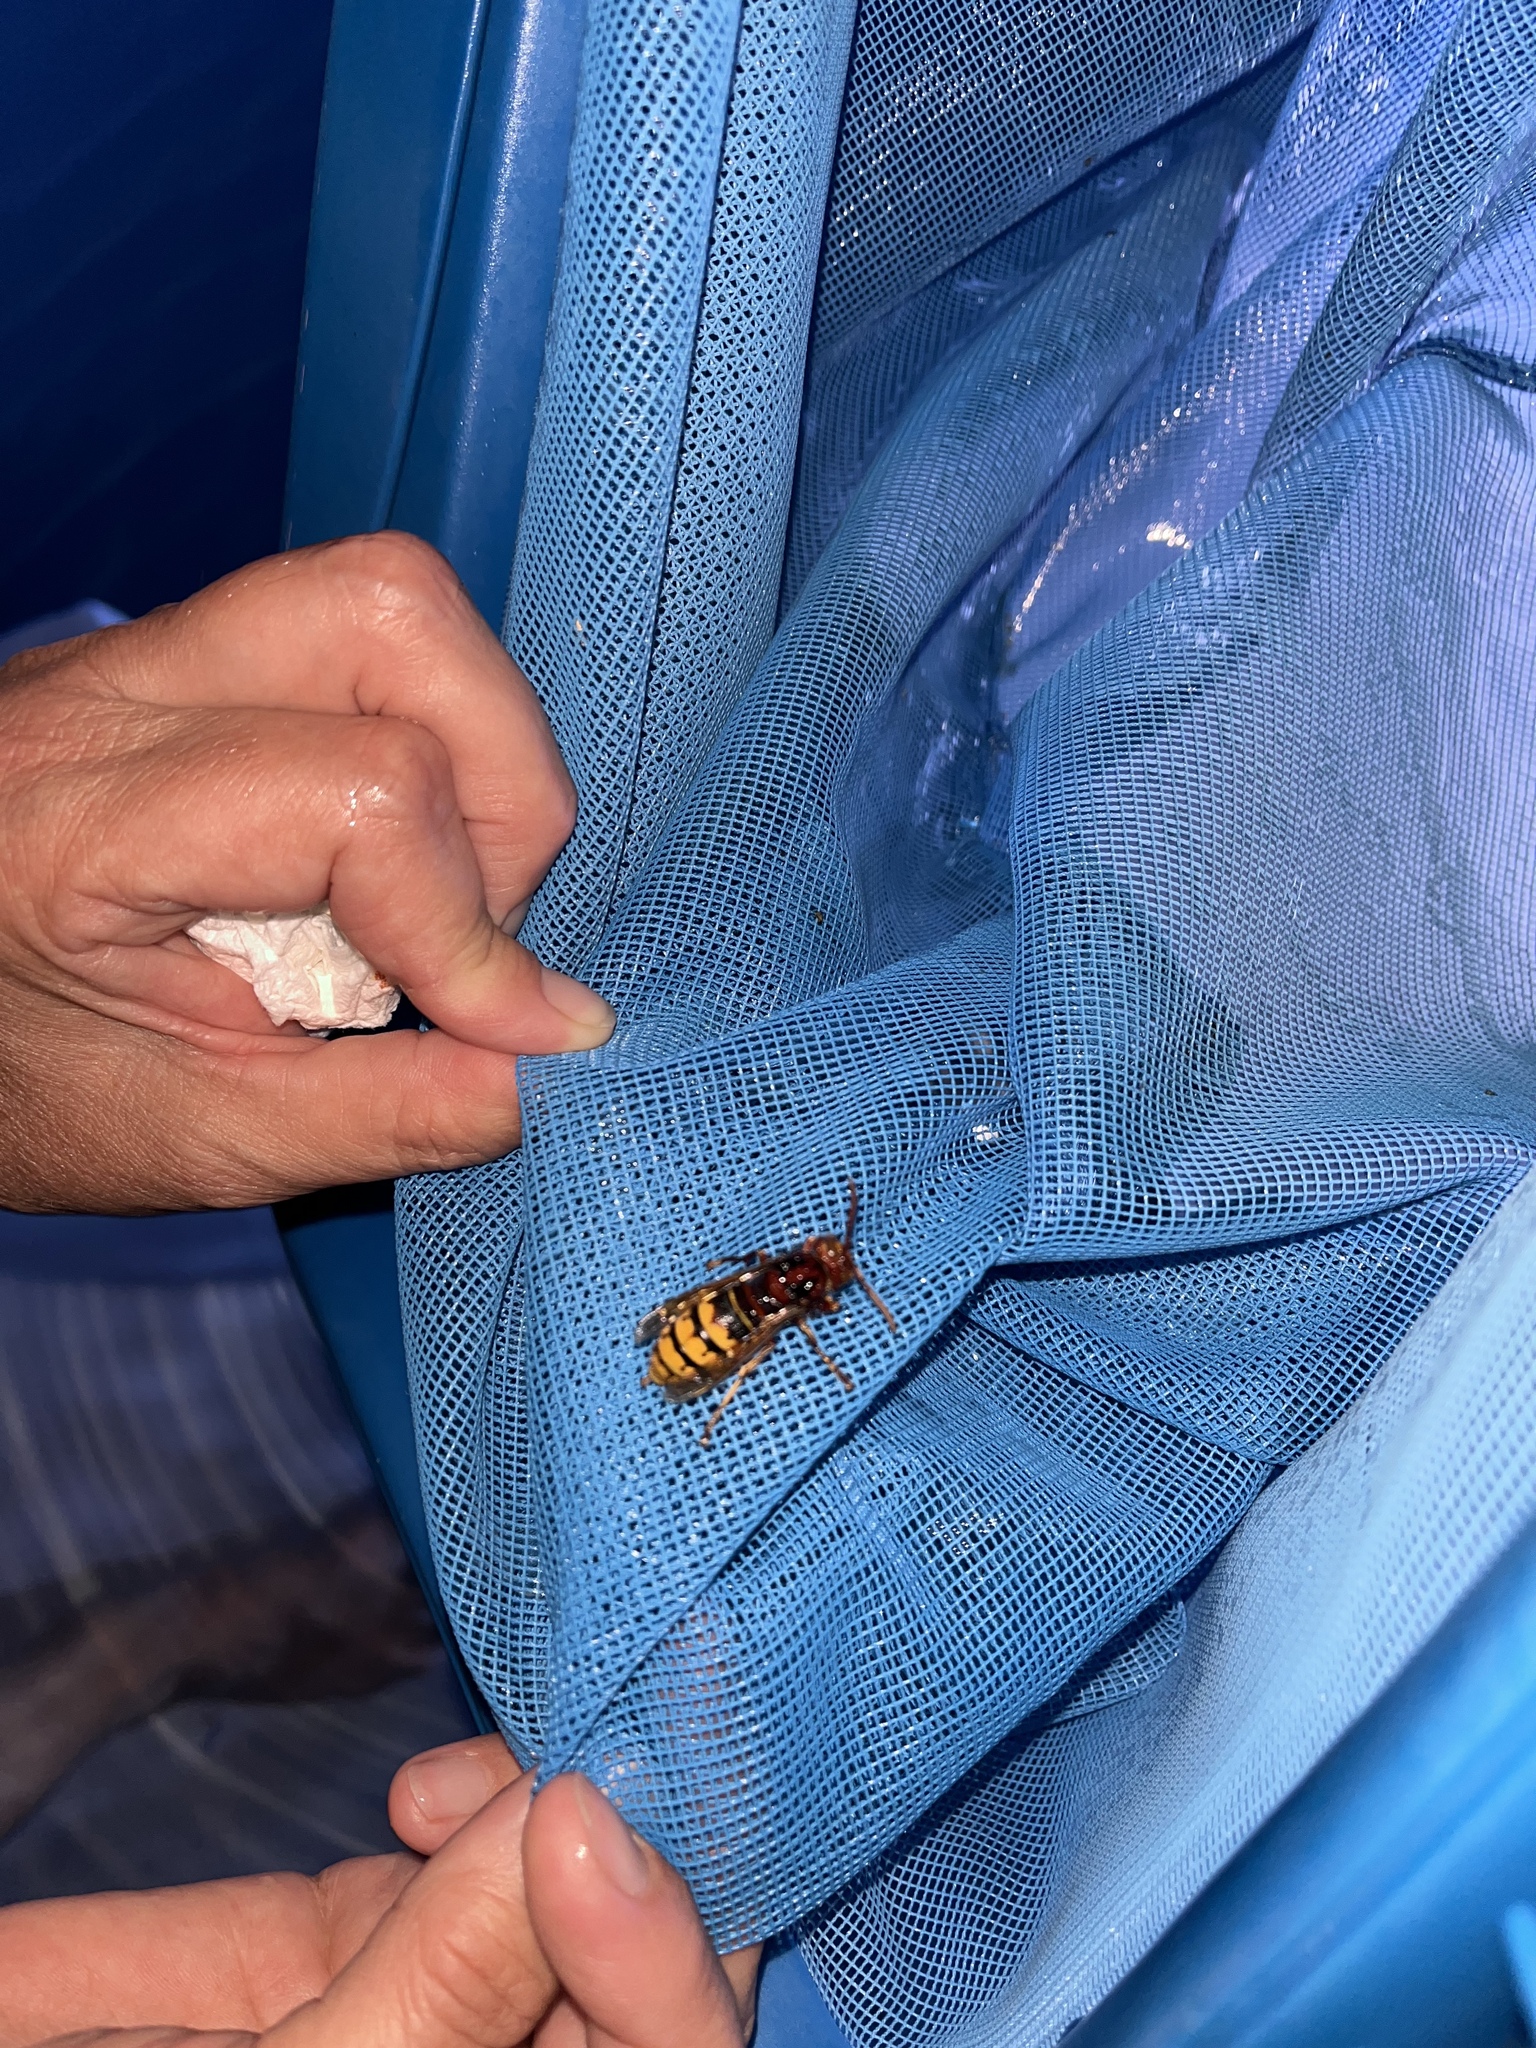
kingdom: Animalia
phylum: Arthropoda
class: Insecta
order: Hymenoptera
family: Vespidae
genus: Vespa
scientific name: Vespa crabro
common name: Hornet
